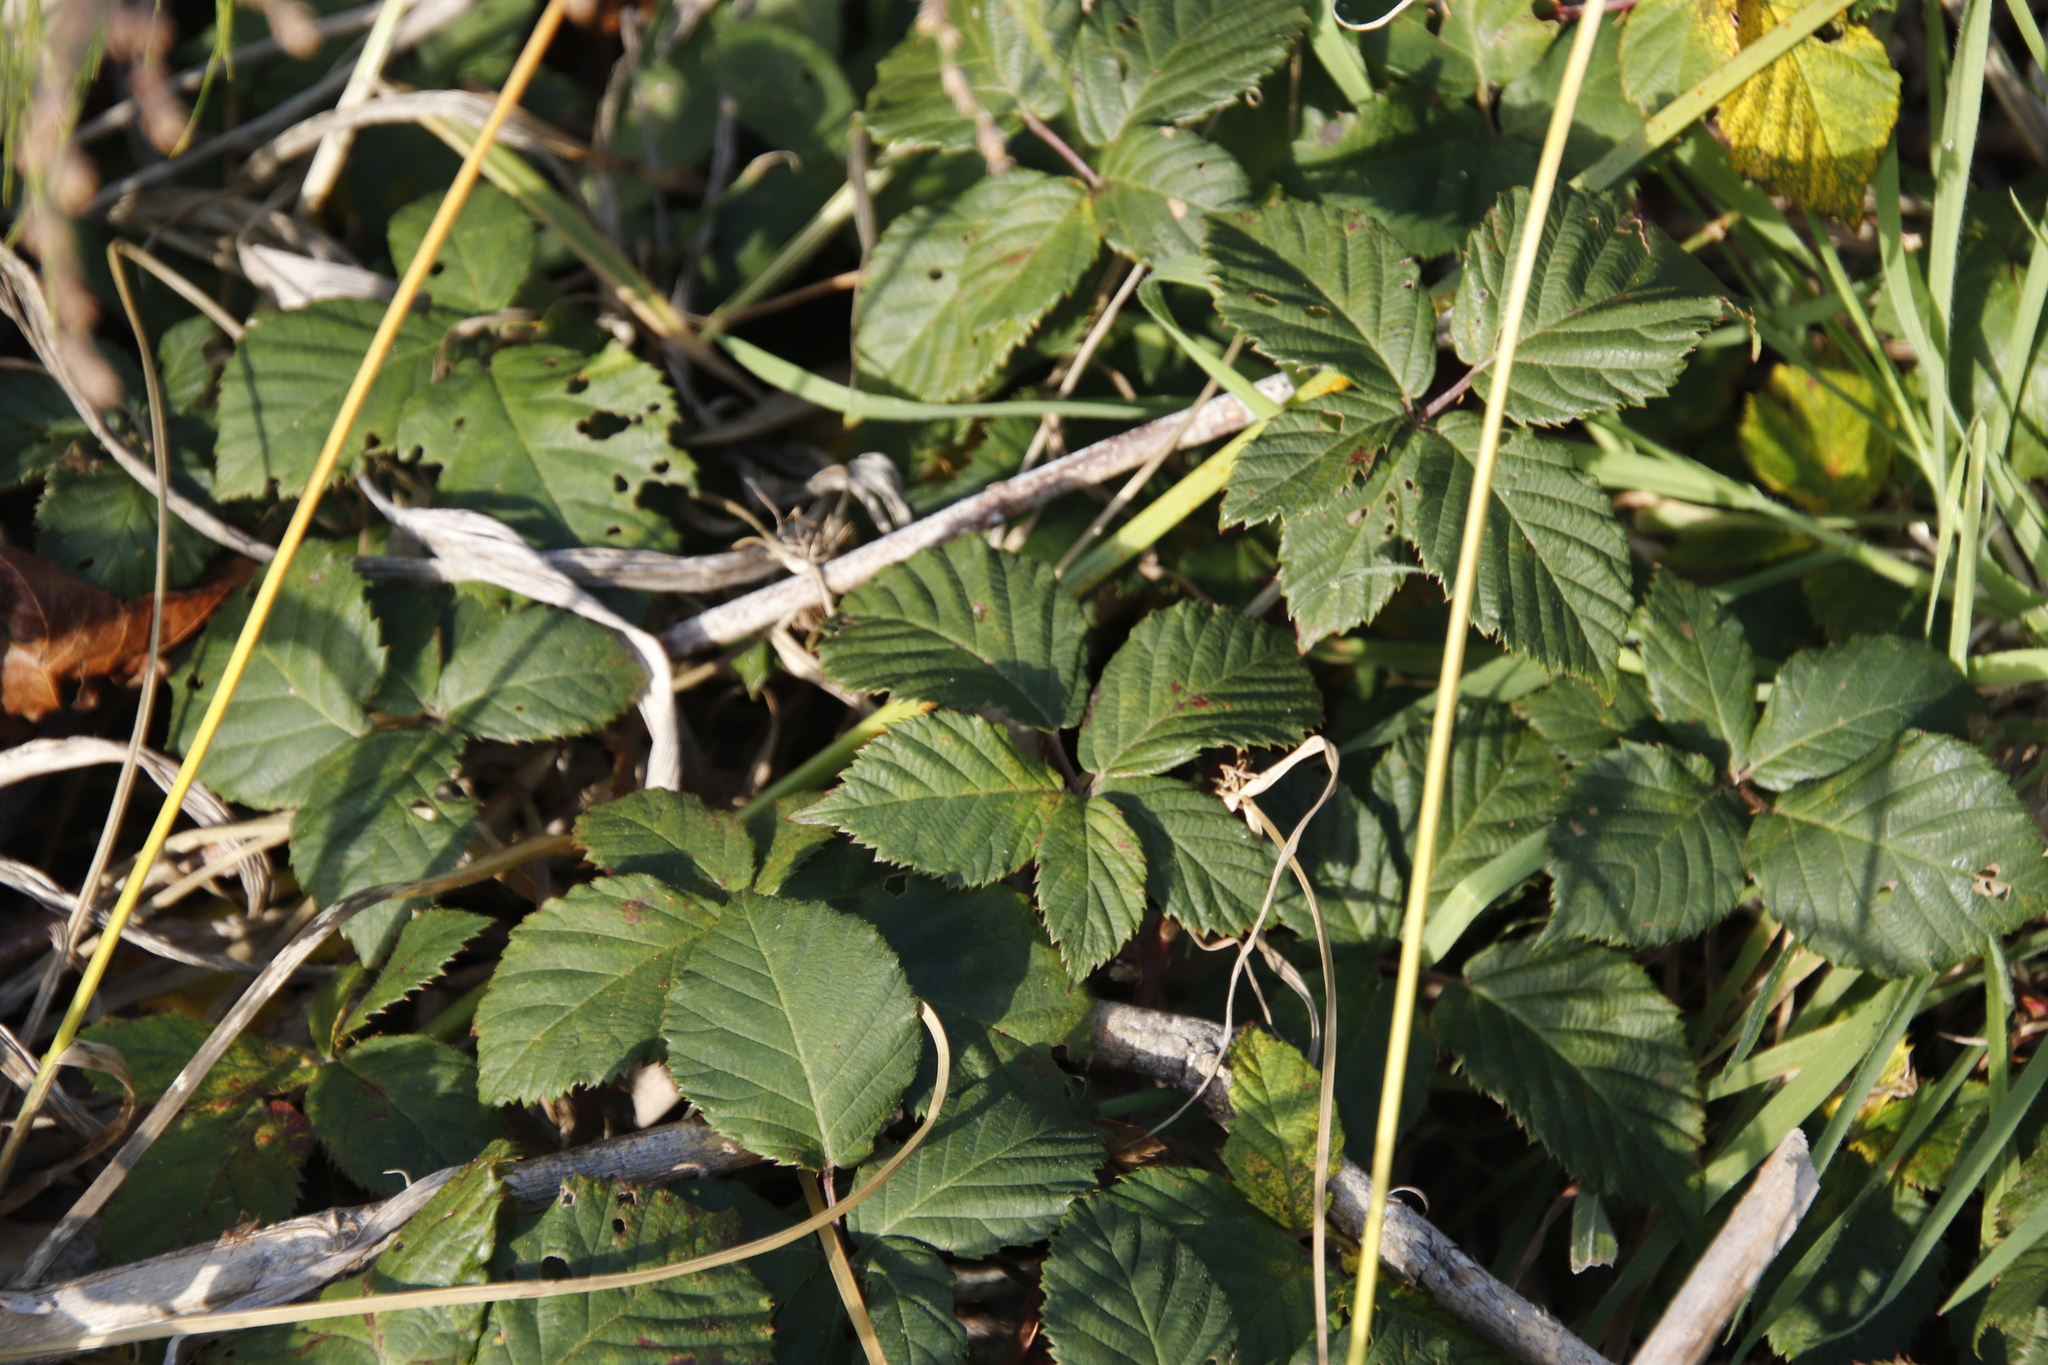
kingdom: Plantae
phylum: Tracheophyta
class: Magnoliopsida
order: Rosales
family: Rosaceae
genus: Rubus
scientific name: Rubus affinis
